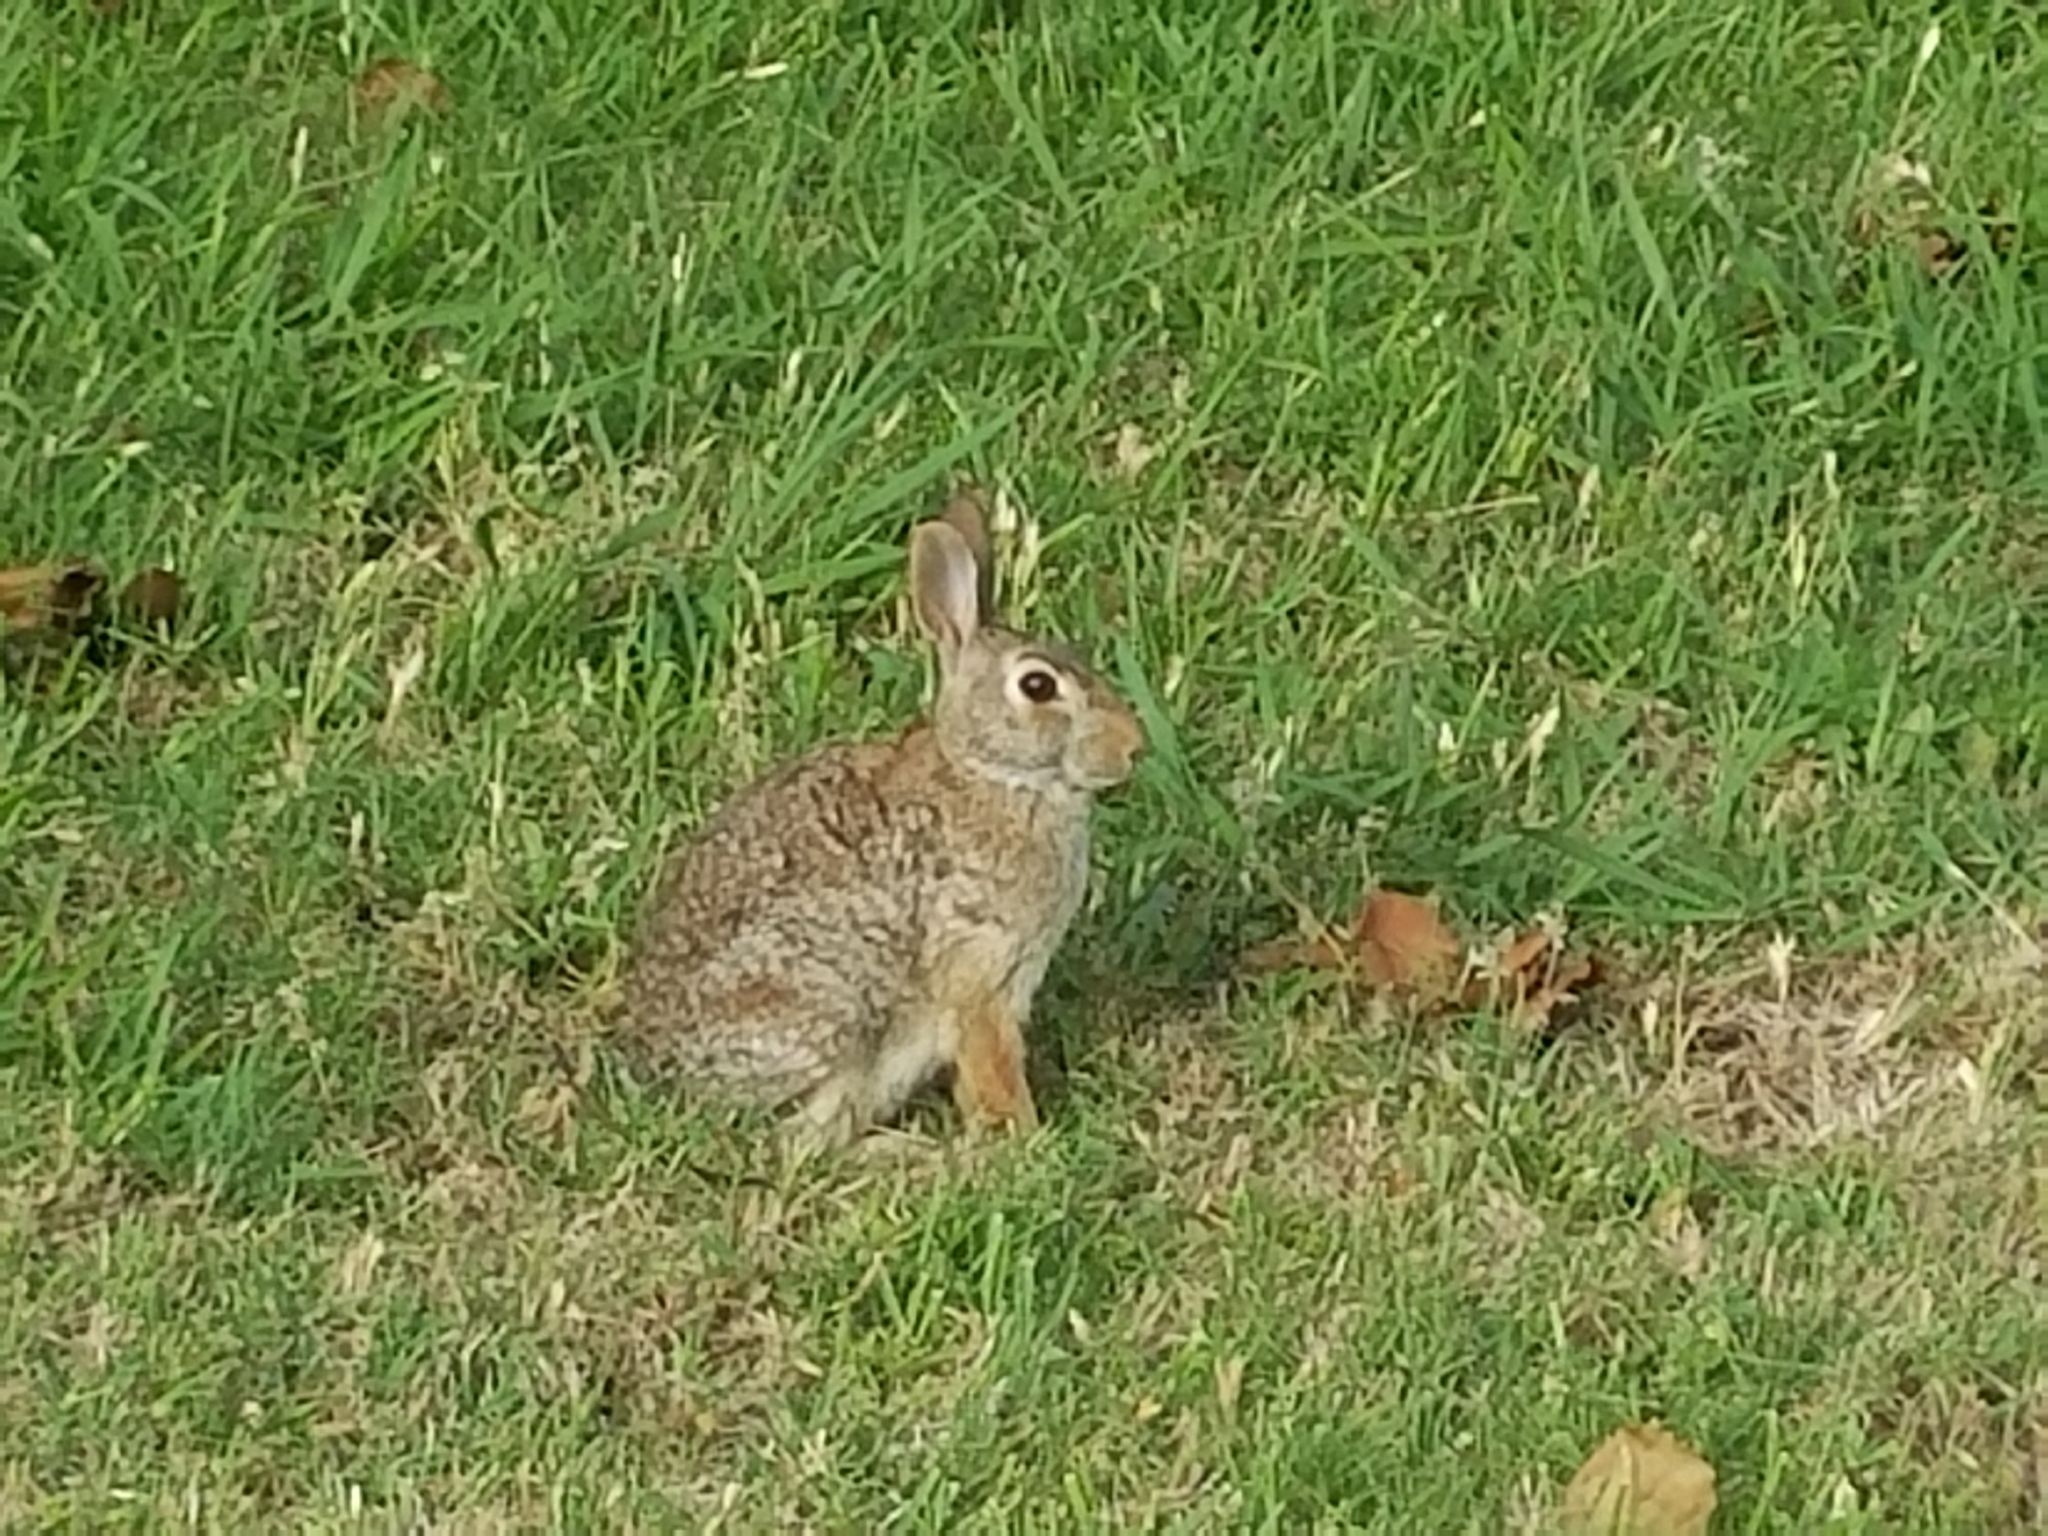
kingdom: Animalia
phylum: Chordata
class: Mammalia
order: Lagomorpha
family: Leporidae
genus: Sylvilagus
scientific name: Sylvilagus floridanus
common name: Eastern cottontail
